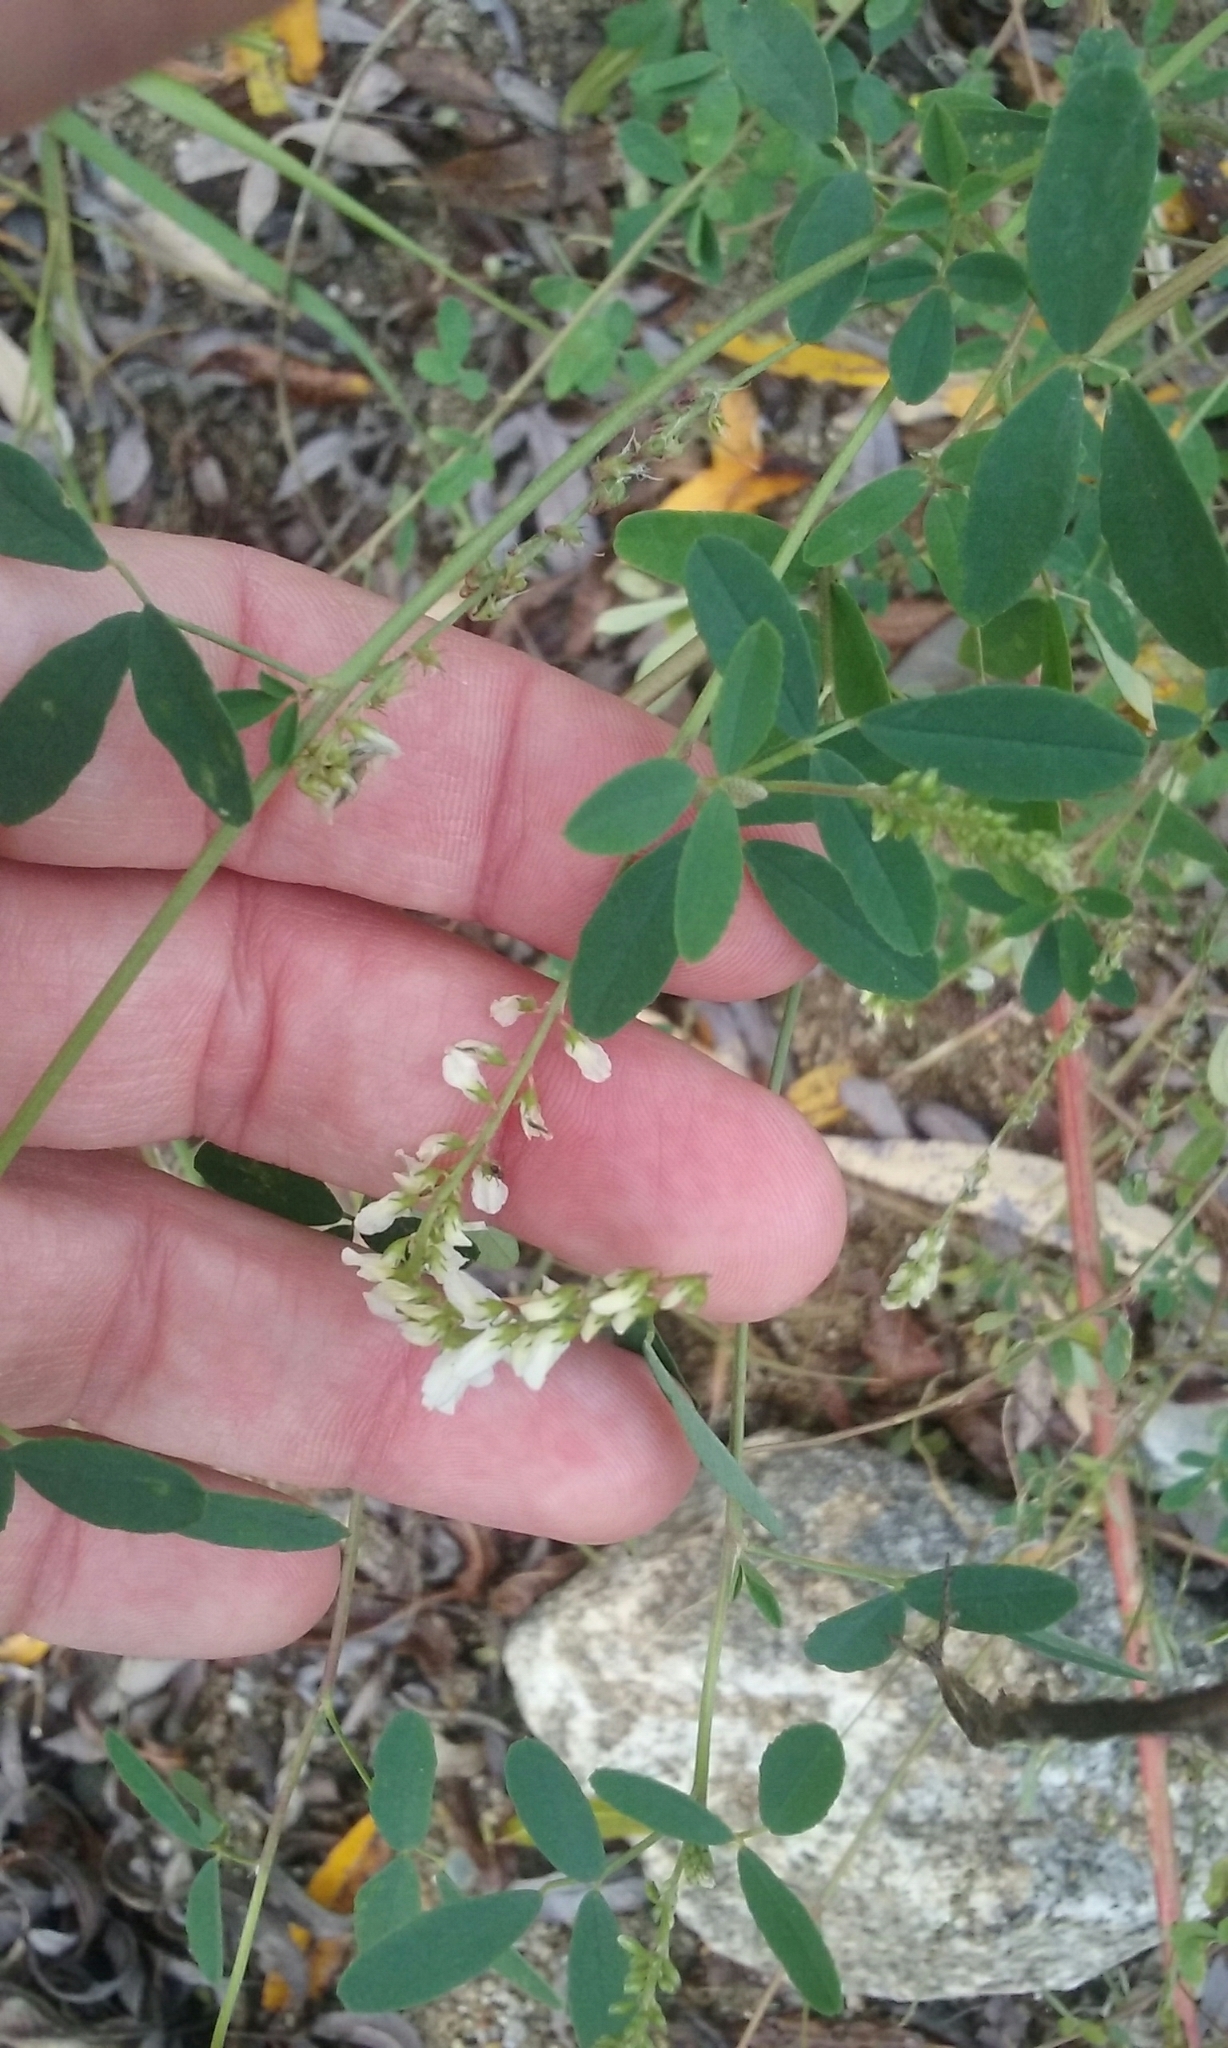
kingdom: Plantae
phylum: Tracheophyta
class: Magnoliopsida
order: Fabales
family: Fabaceae
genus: Melilotus
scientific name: Melilotus albus
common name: White melilot
